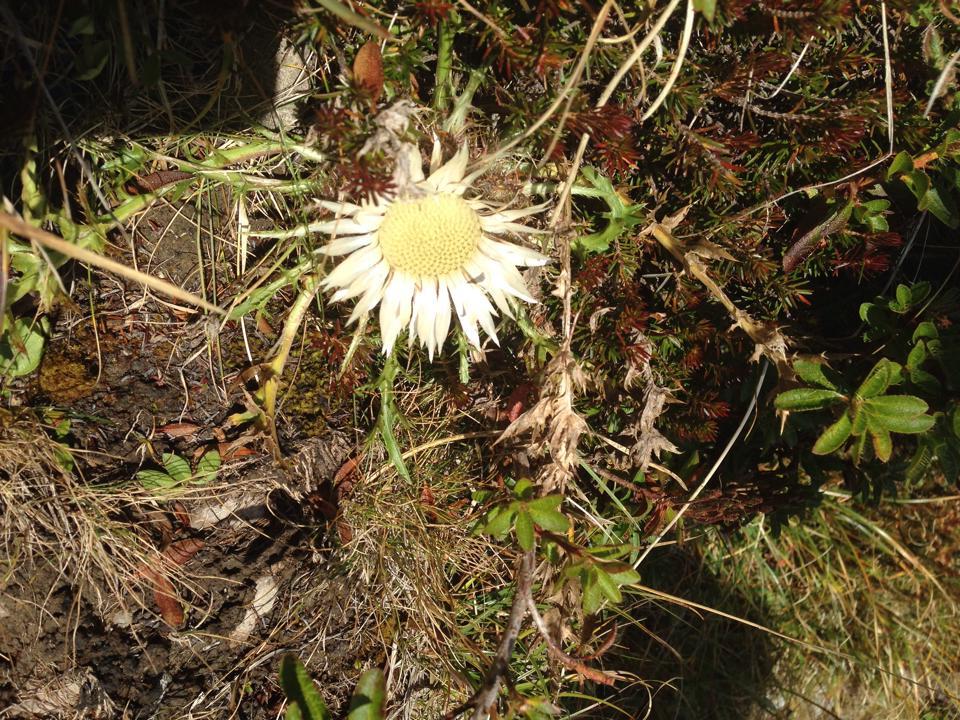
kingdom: Plantae
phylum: Tracheophyta
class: Magnoliopsida
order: Asterales
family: Asteraceae
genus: Carlina
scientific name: Carlina acaulis
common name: Stemless carline thistle
